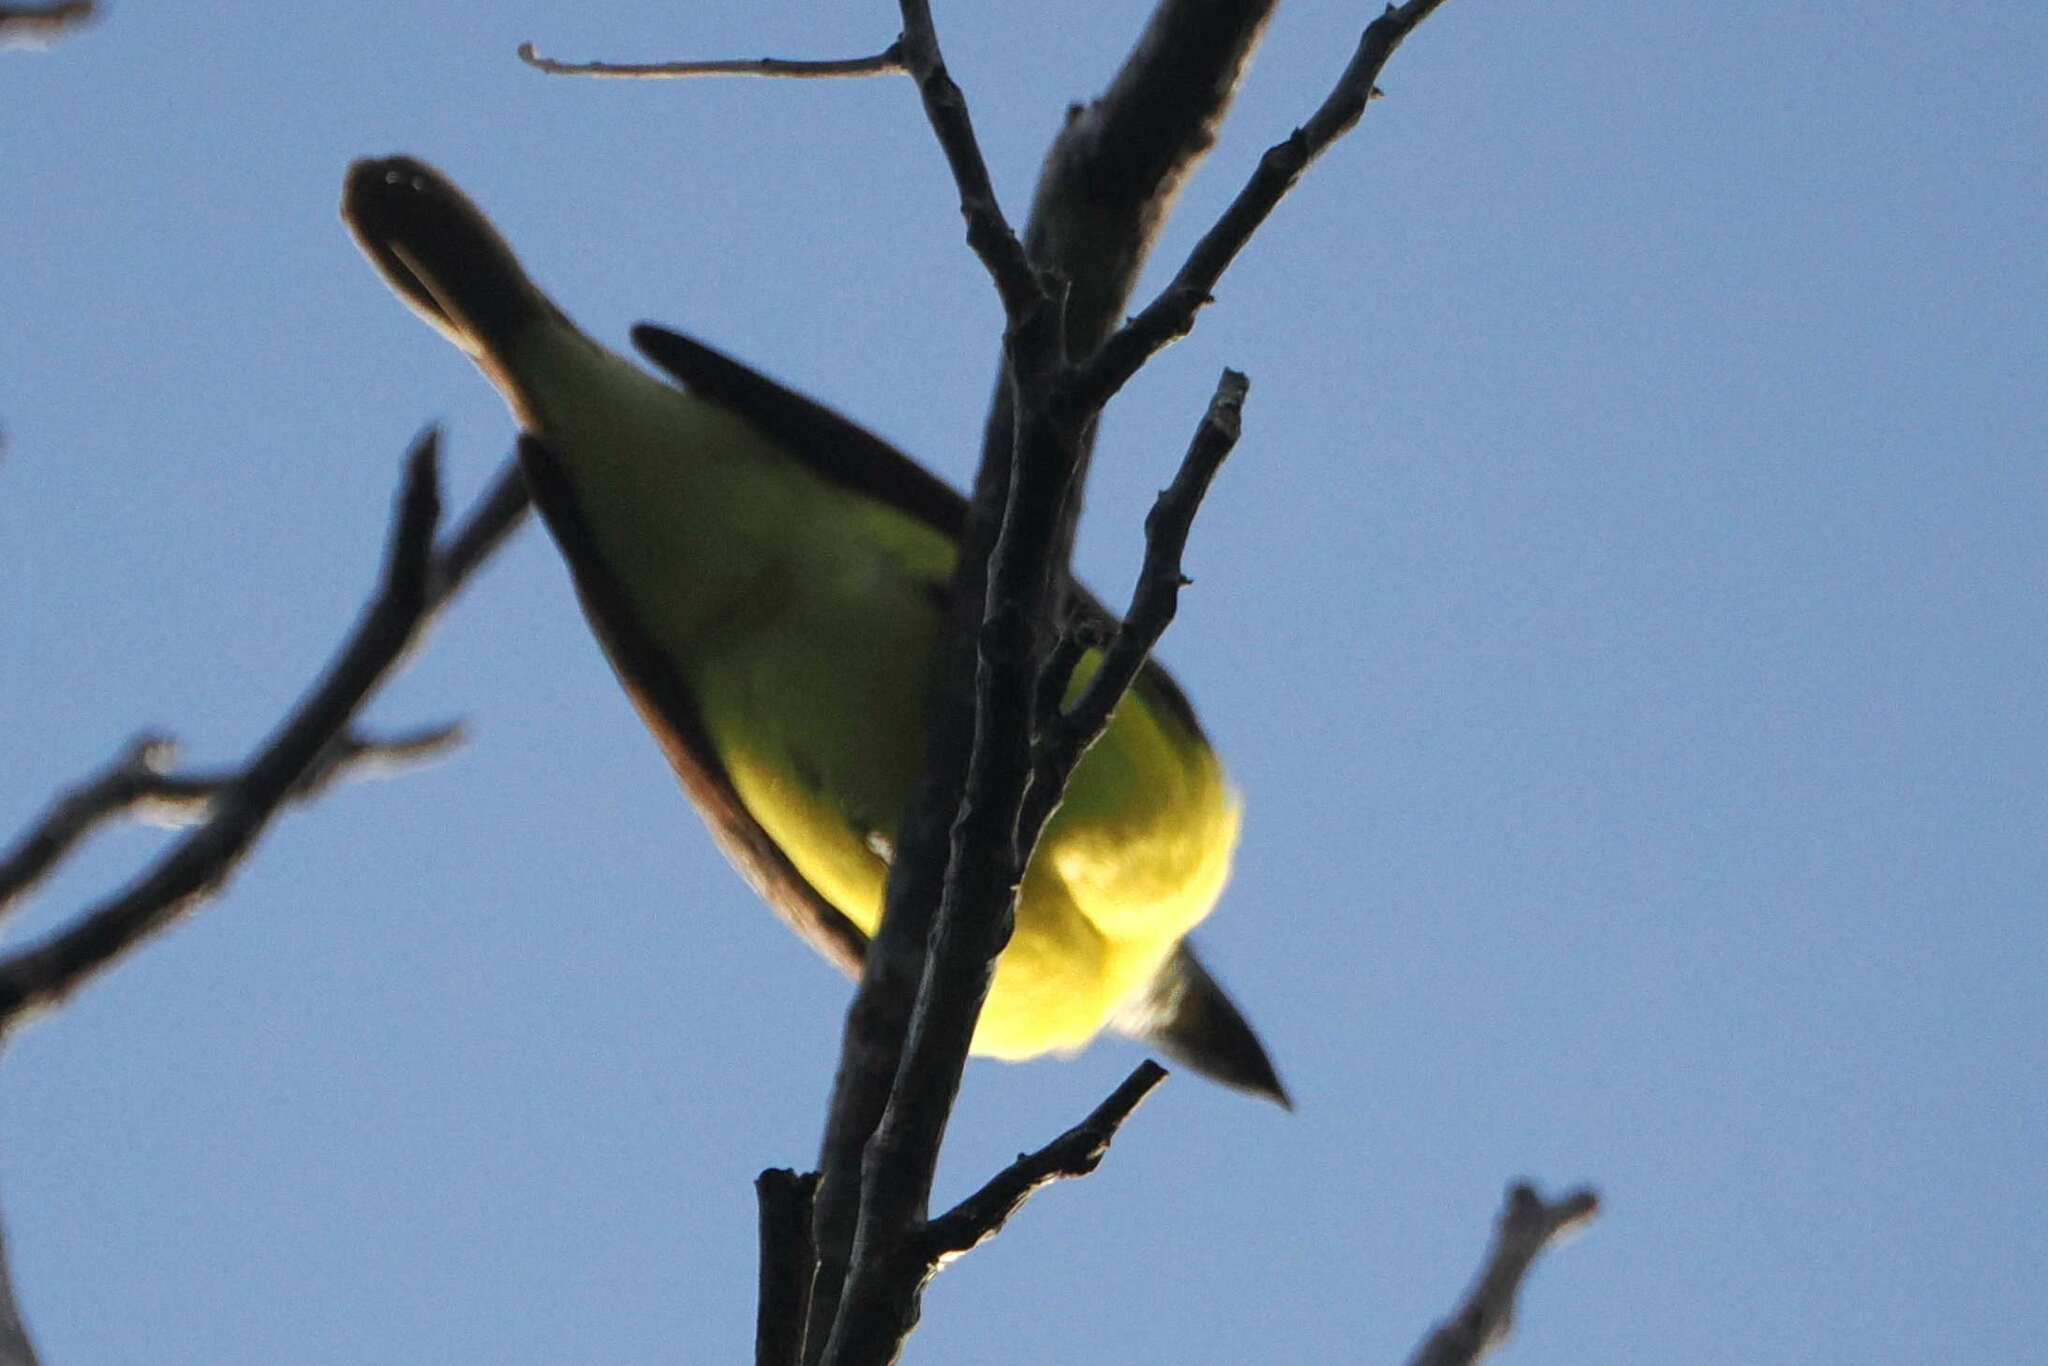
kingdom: Animalia
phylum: Chordata
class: Aves
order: Passeriformes
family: Tyrannidae
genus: Megarynchus
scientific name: Megarynchus pitangua
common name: Boat-billed flycatcher
